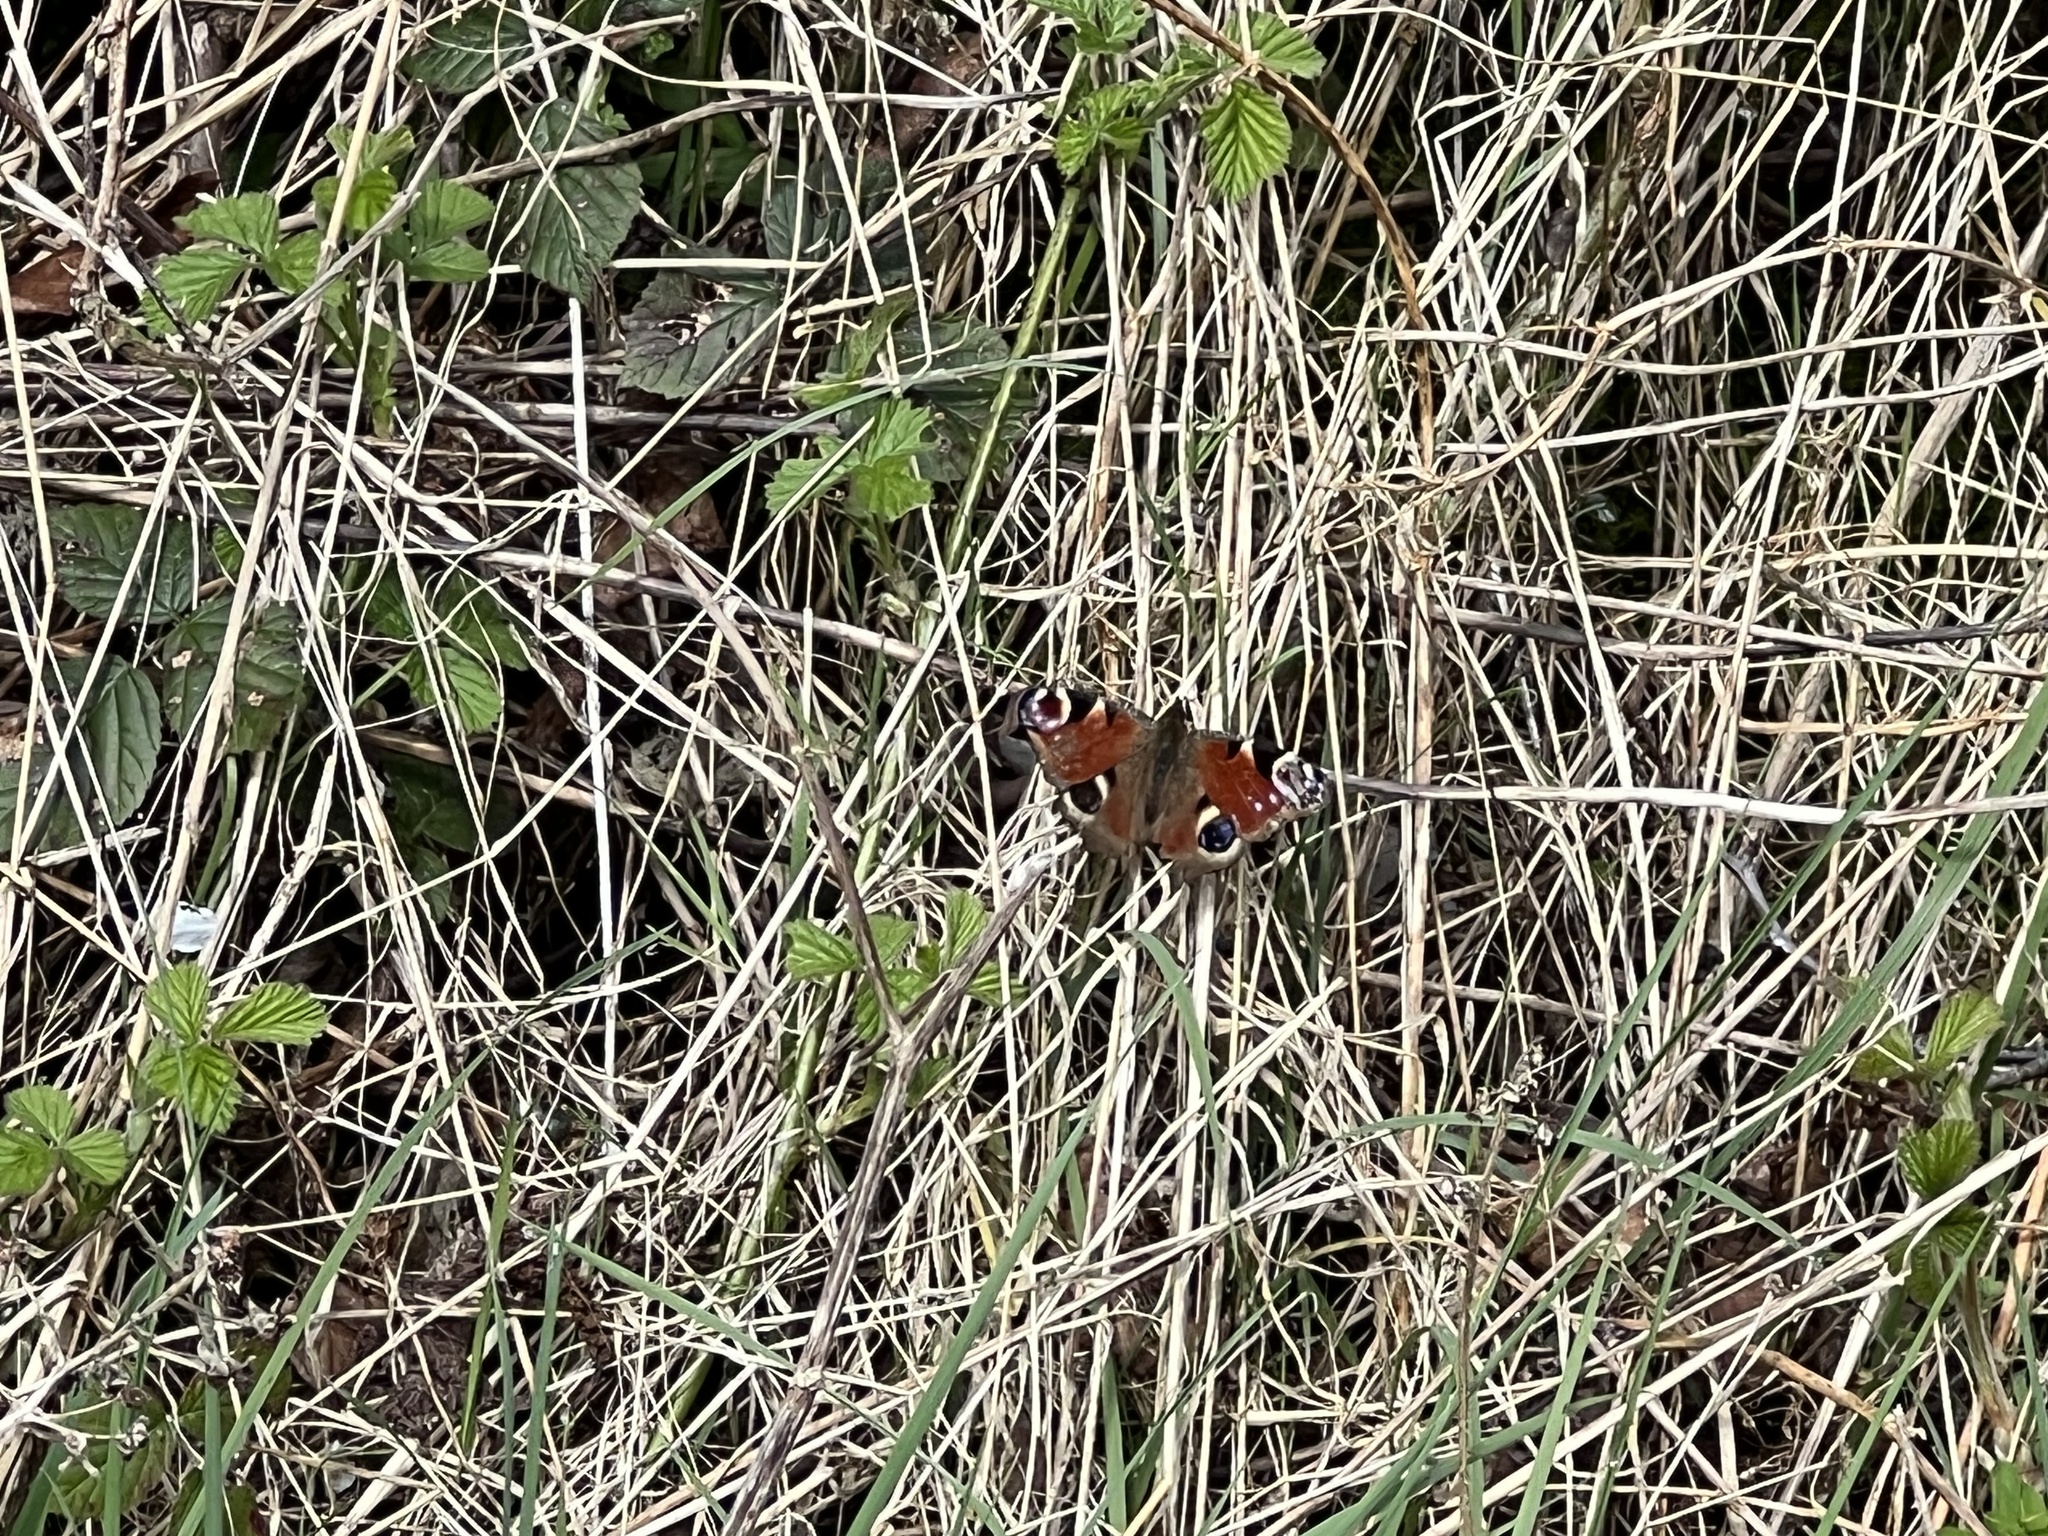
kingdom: Animalia
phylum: Arthropoda
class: Insecta
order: Lepidoptera
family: Nymphalidae
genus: Aglais
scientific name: Aglais io
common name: Peacock
